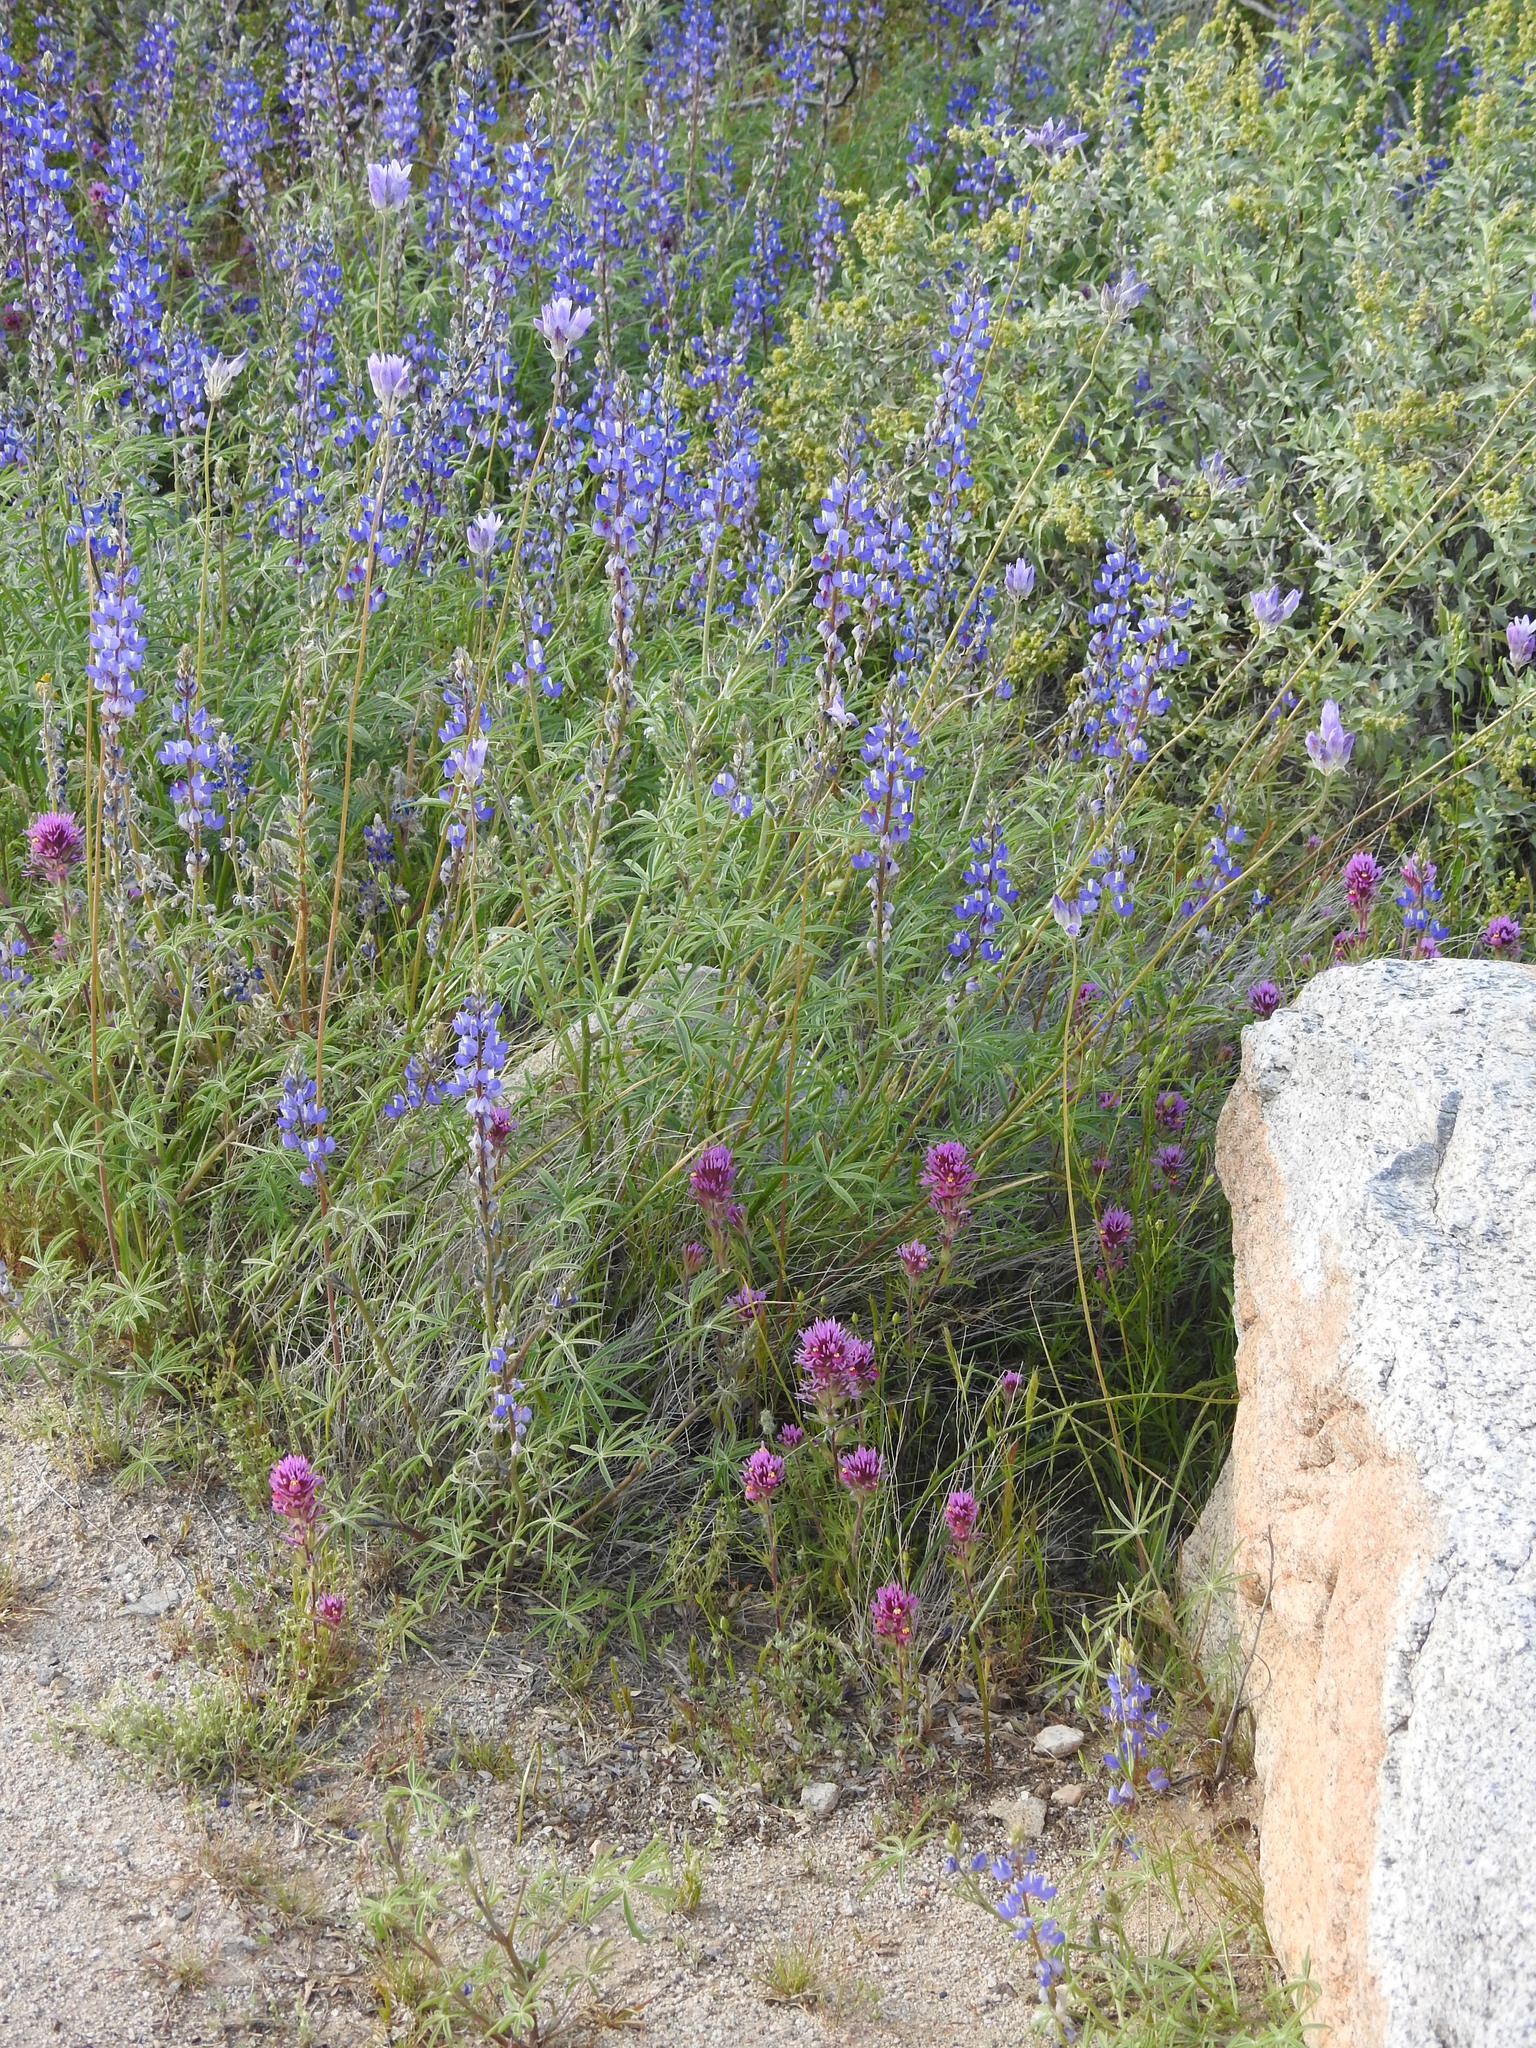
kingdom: Plantae
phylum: Tracheophyta
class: Magnoliopsida
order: Lamiales
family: Orobanchaceae
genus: Castilleja
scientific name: Castilleja exserta
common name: Purple owl-clover
